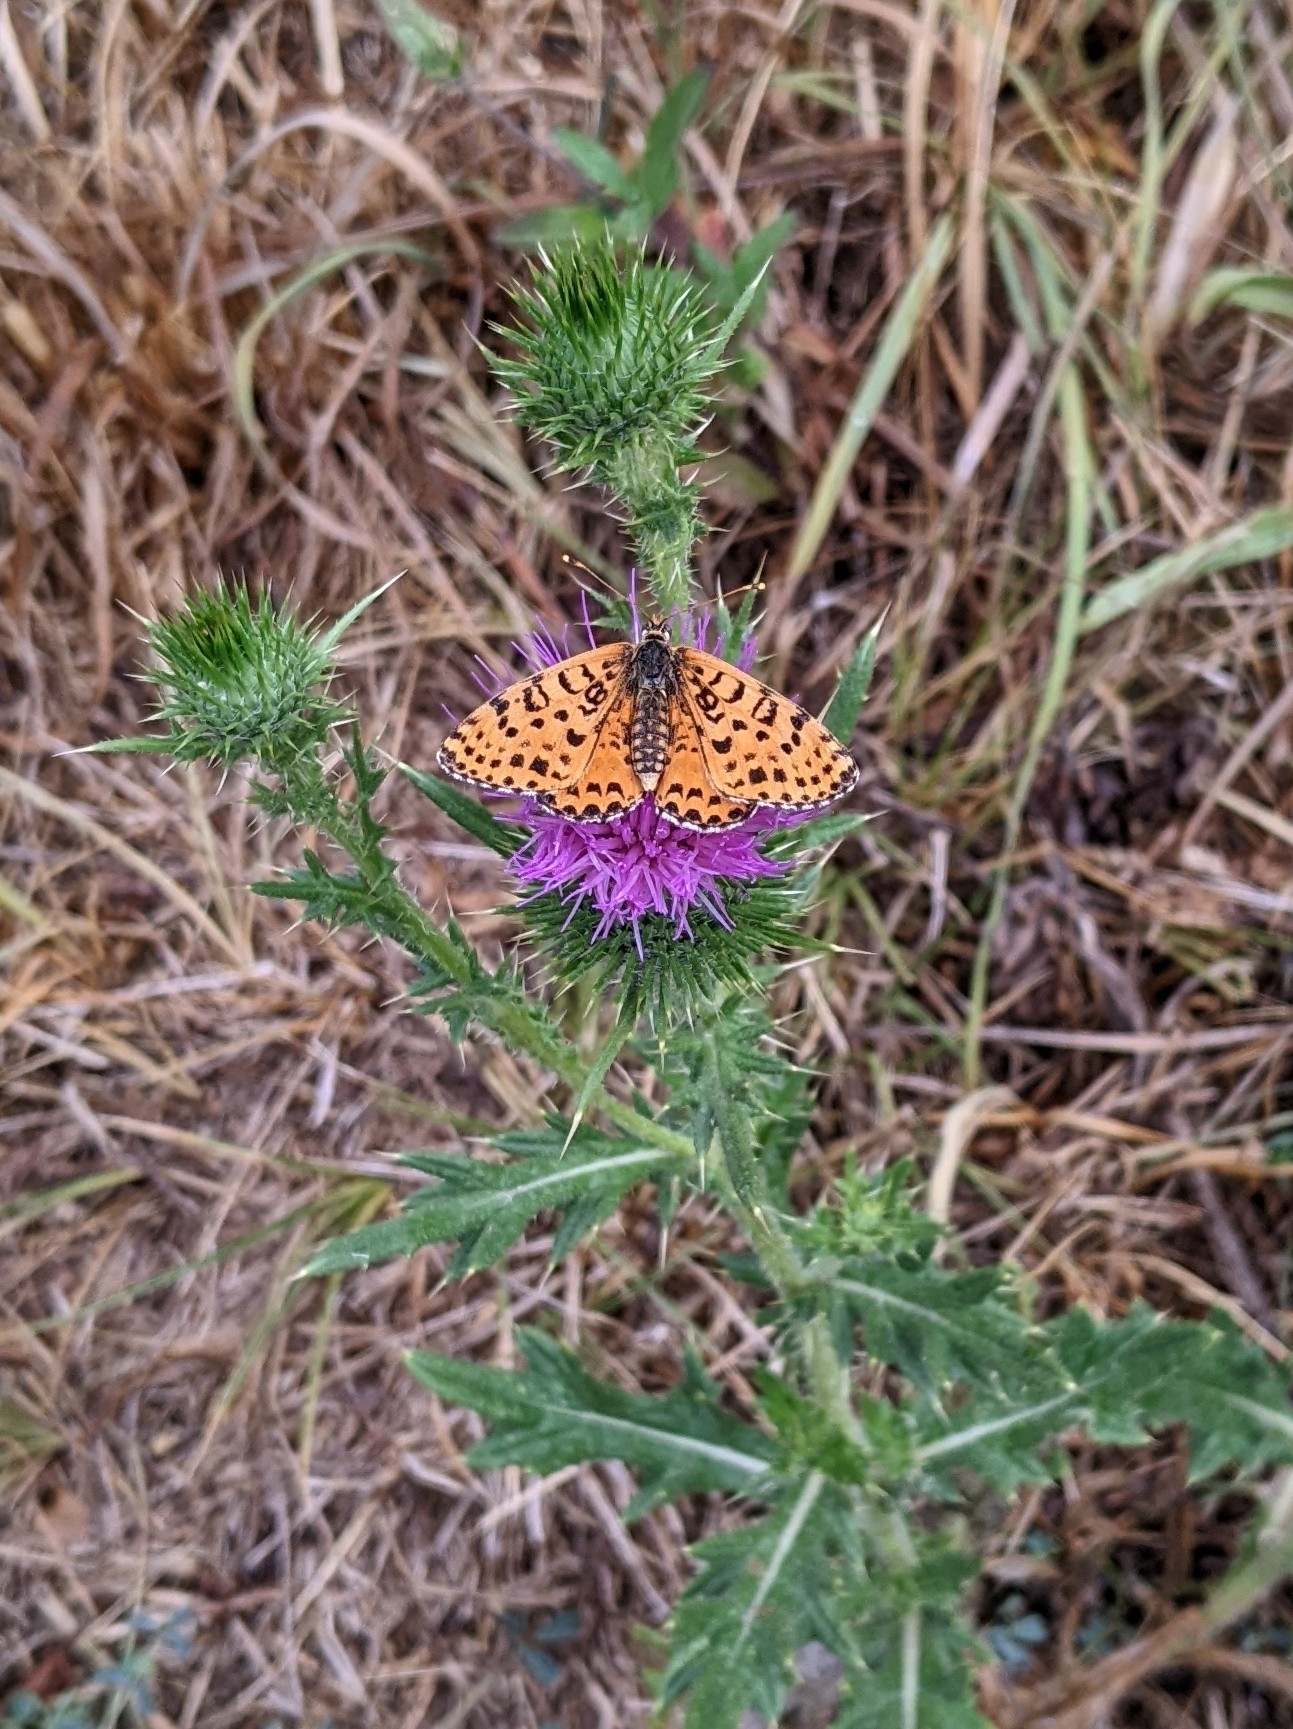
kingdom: Animalia
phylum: Arthropoda
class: Insecta
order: Lepidoptera
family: Nymphalidae
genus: Melitaea
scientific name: Melitaea didyma
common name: Spotted fritillary
